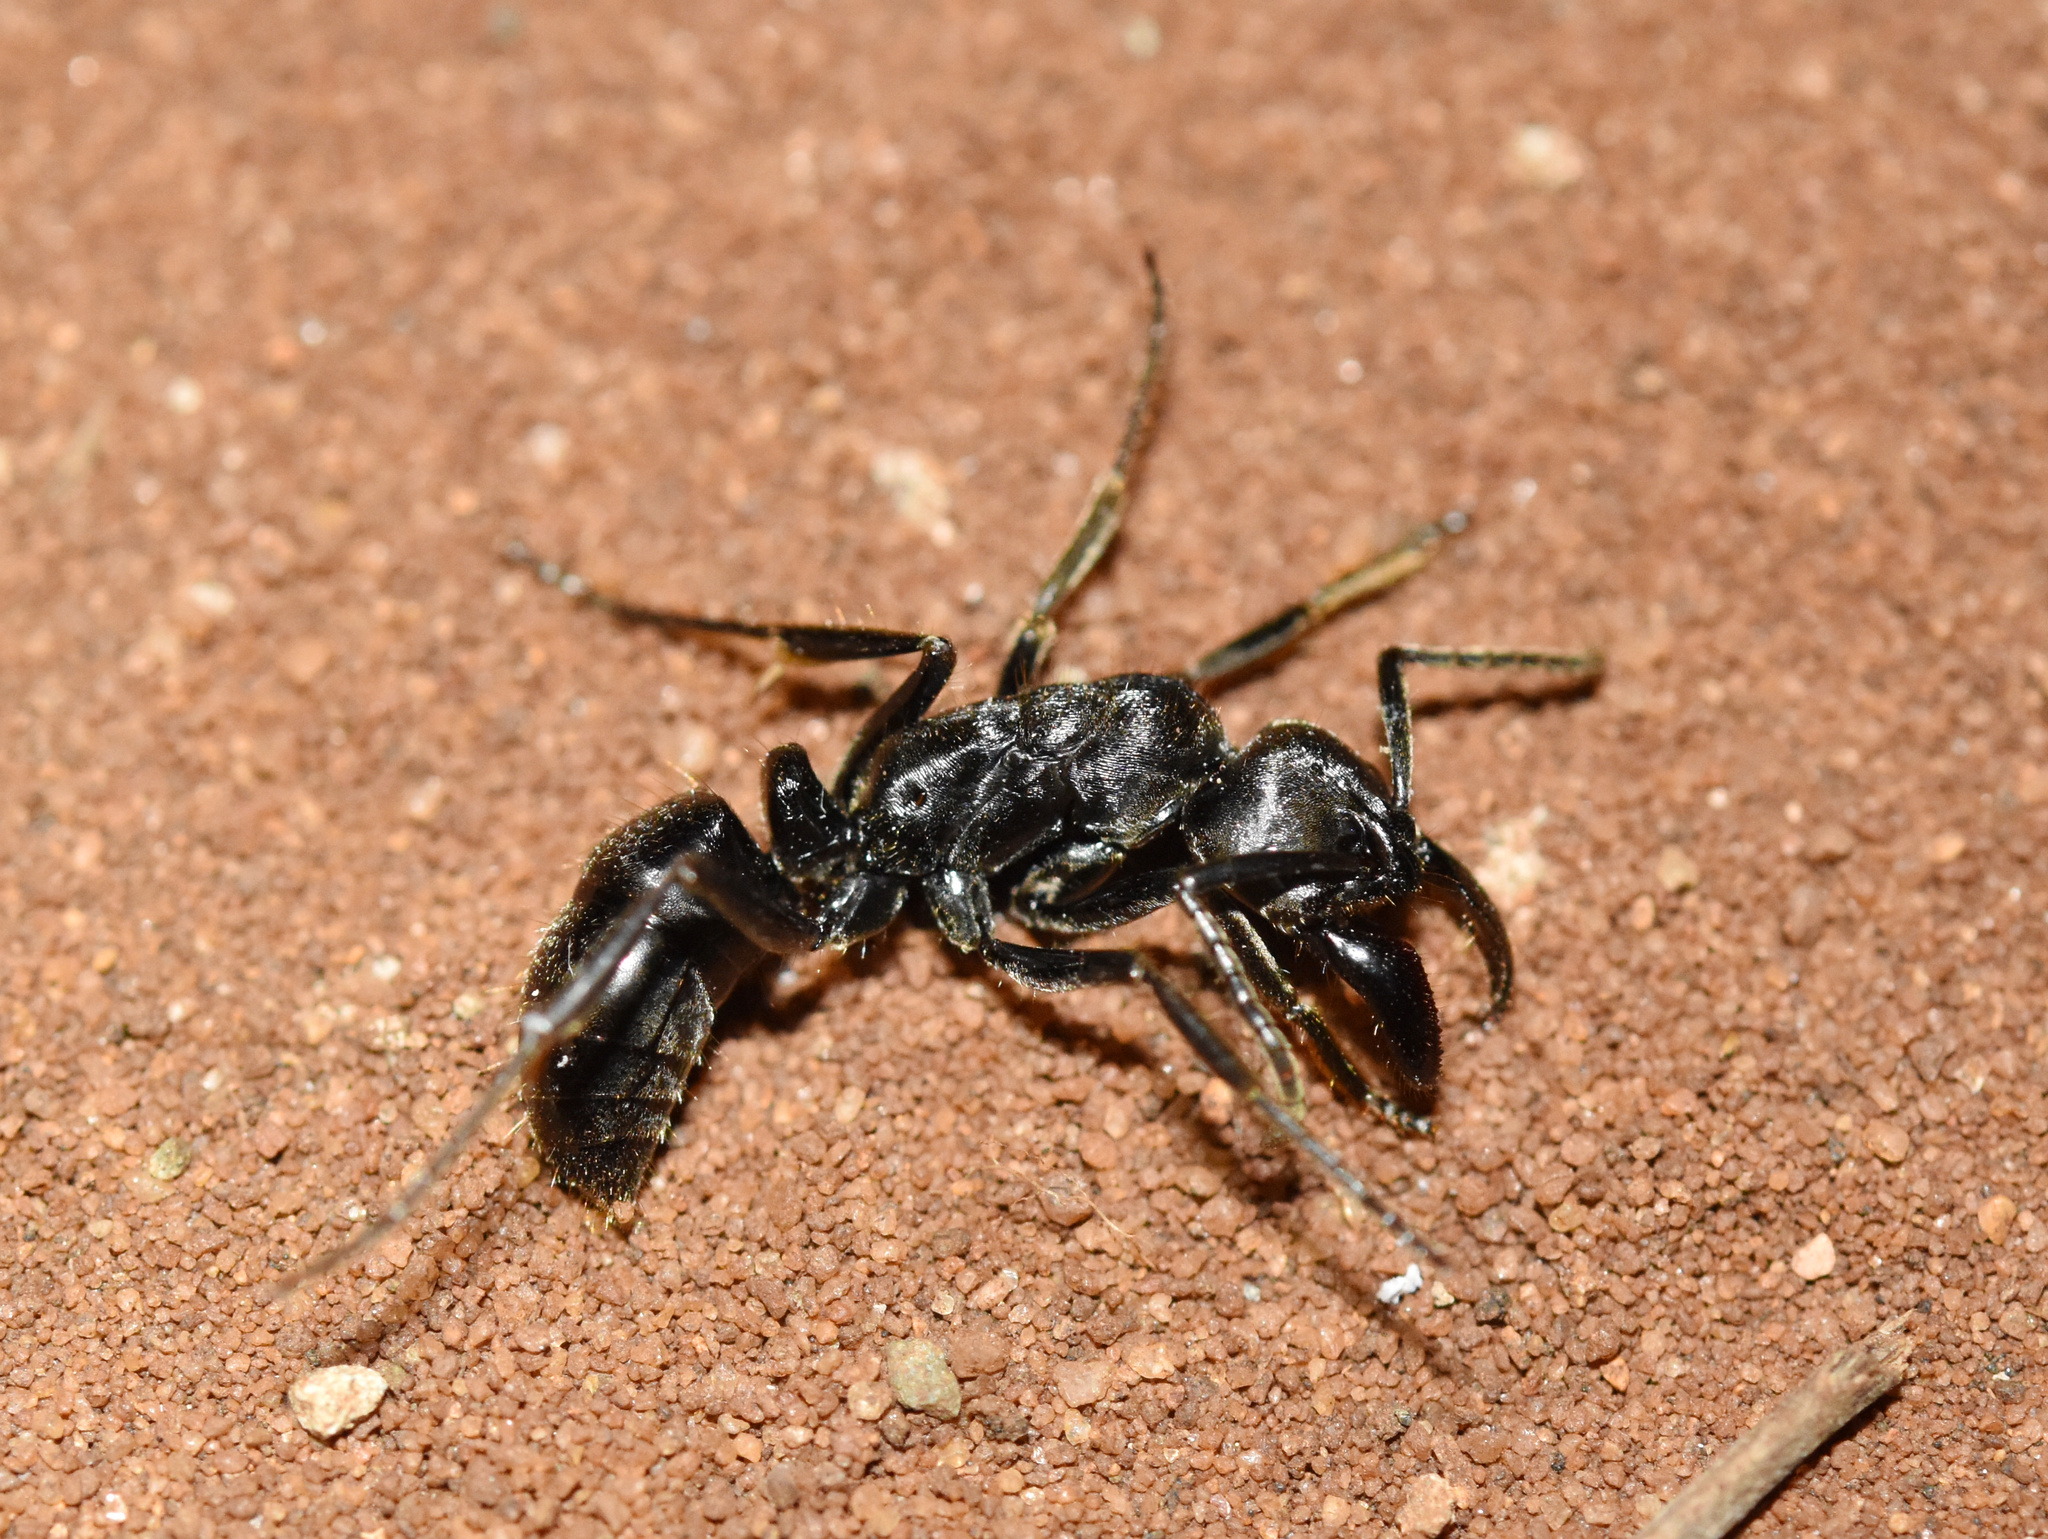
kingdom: Animalia
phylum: Arthropoda
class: Insecta
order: Hymenoptera
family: Formicidae
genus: Paltothyreus
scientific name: Paltothyreus tarsatus
